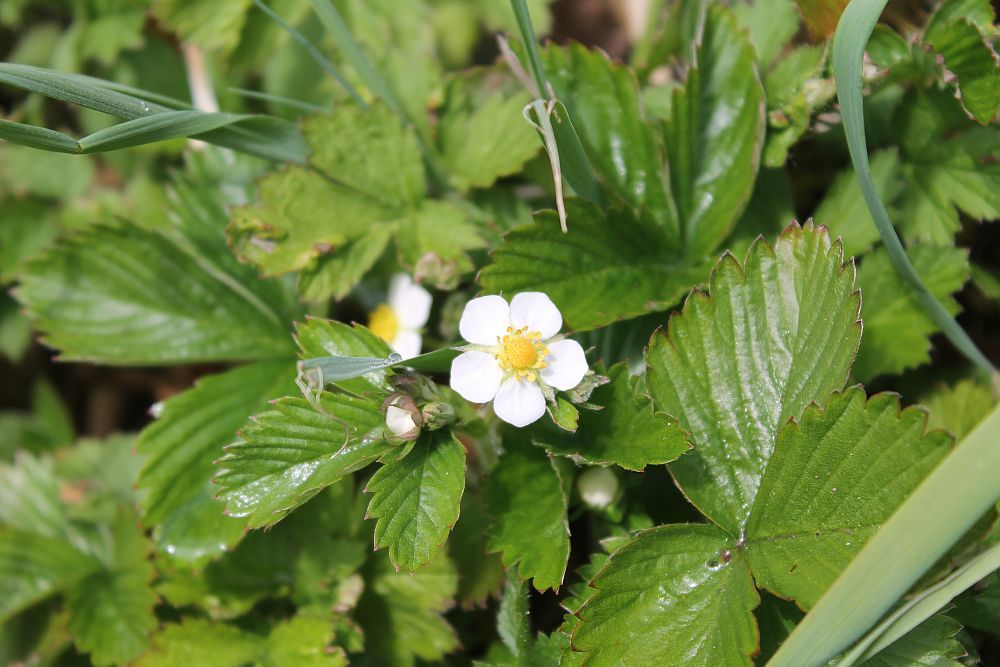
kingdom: Plantae
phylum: Tracheophyta
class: Magnoliopsida
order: Rosales
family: Rosaceae
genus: Fragaria
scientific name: Fragaria vesca
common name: Wild strawberry
